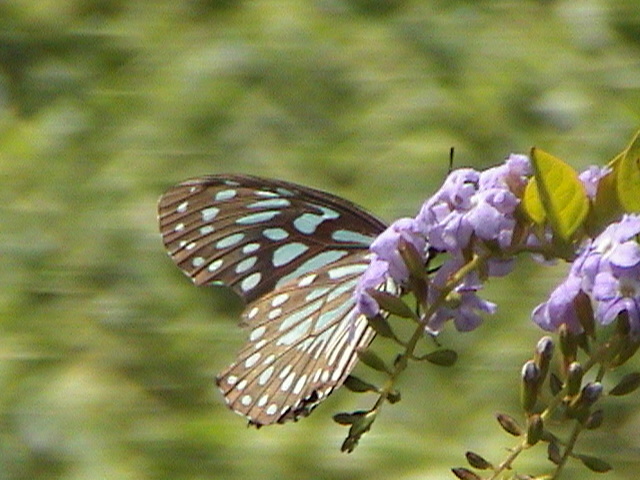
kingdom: Animalia
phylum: Arthropoda
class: Insecta
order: Lepidoptera
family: Nymphalidae
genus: Tirumala
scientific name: Tirumala septentrionis
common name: Dark blue tiger butterfly
